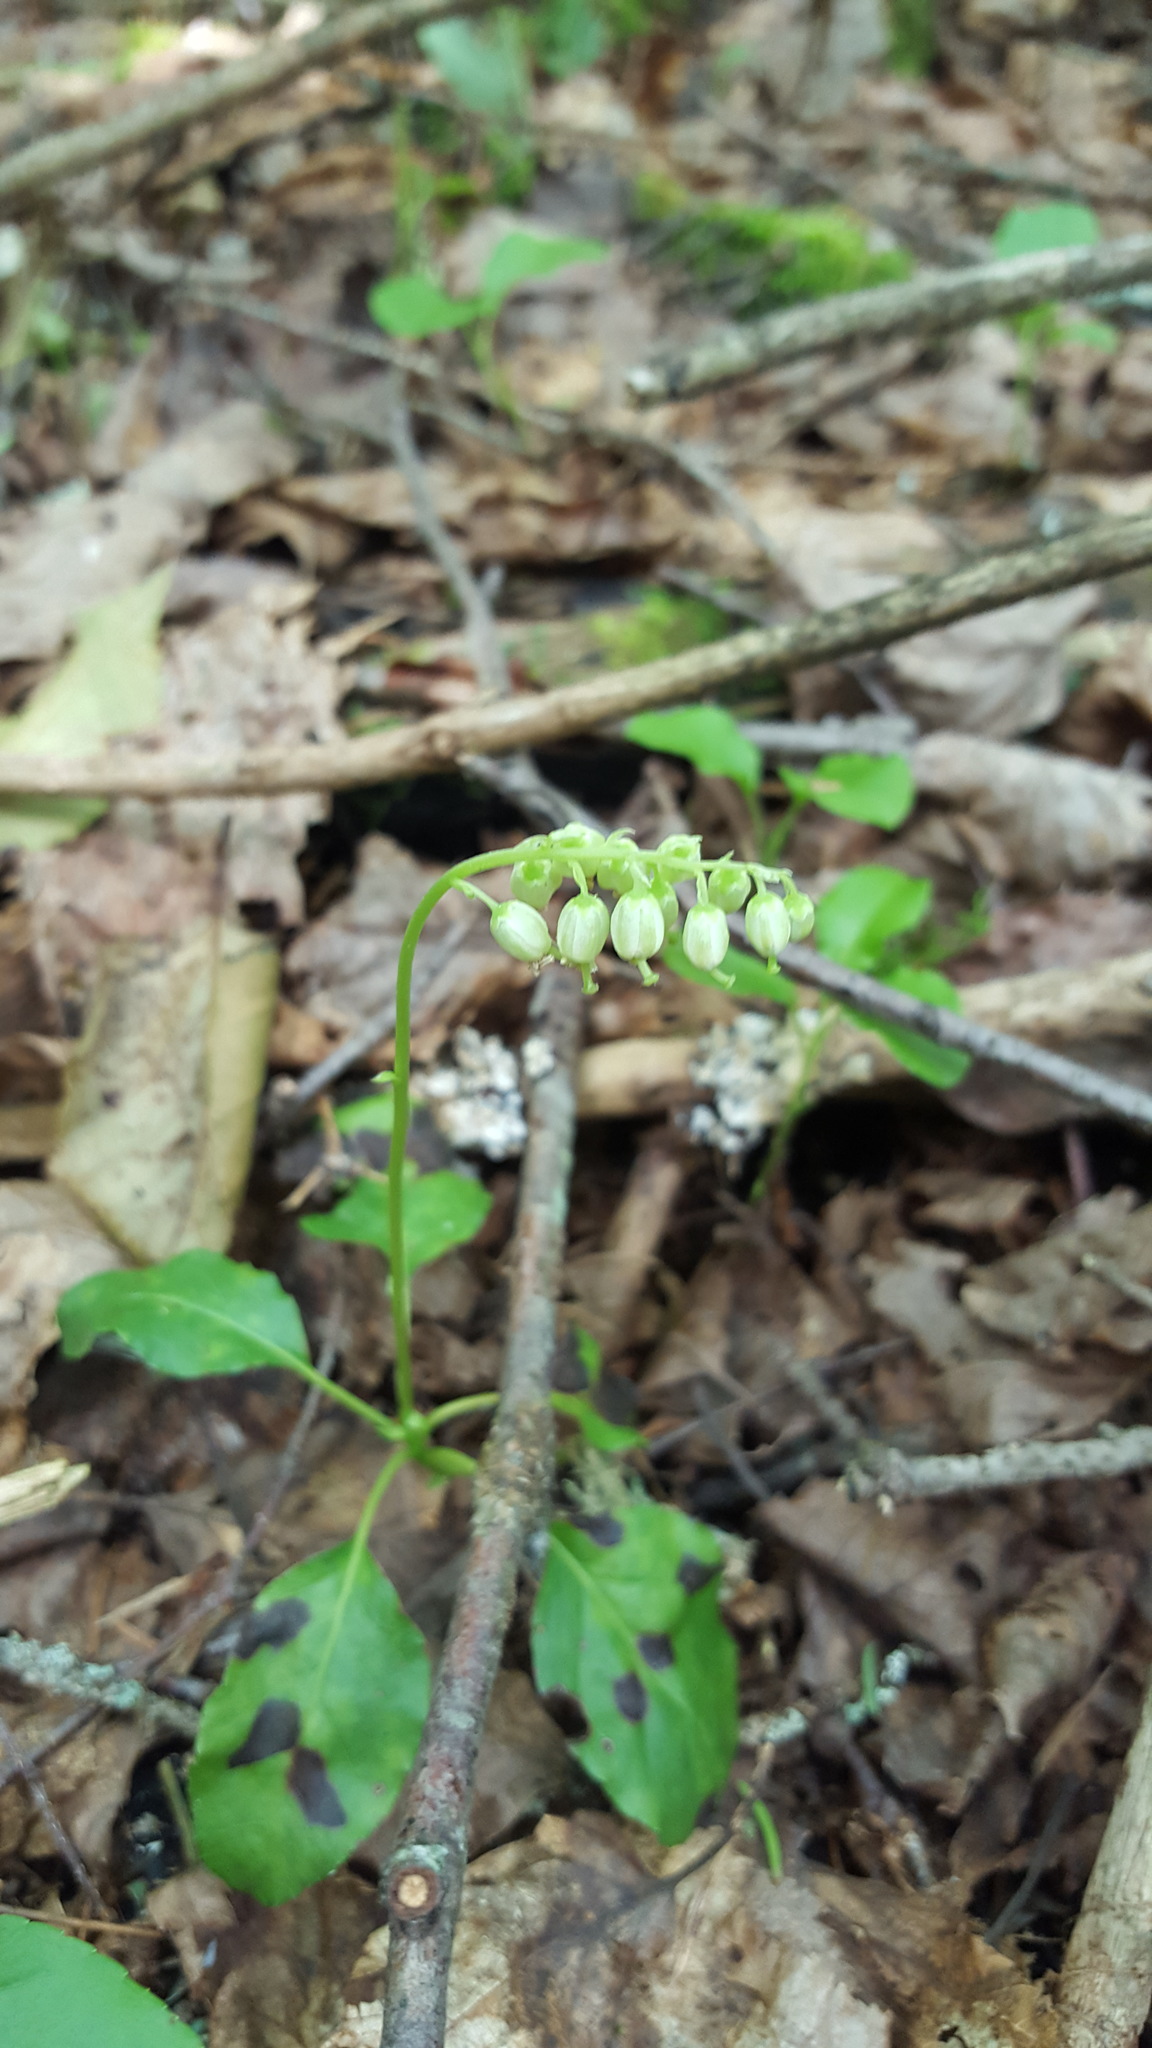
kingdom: Plantae
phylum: Tracheophyta
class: Magnoliopsida
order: Ericales
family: Ericaceae
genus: Orthilia
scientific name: Orthilia secunda
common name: One-sided orthilia
